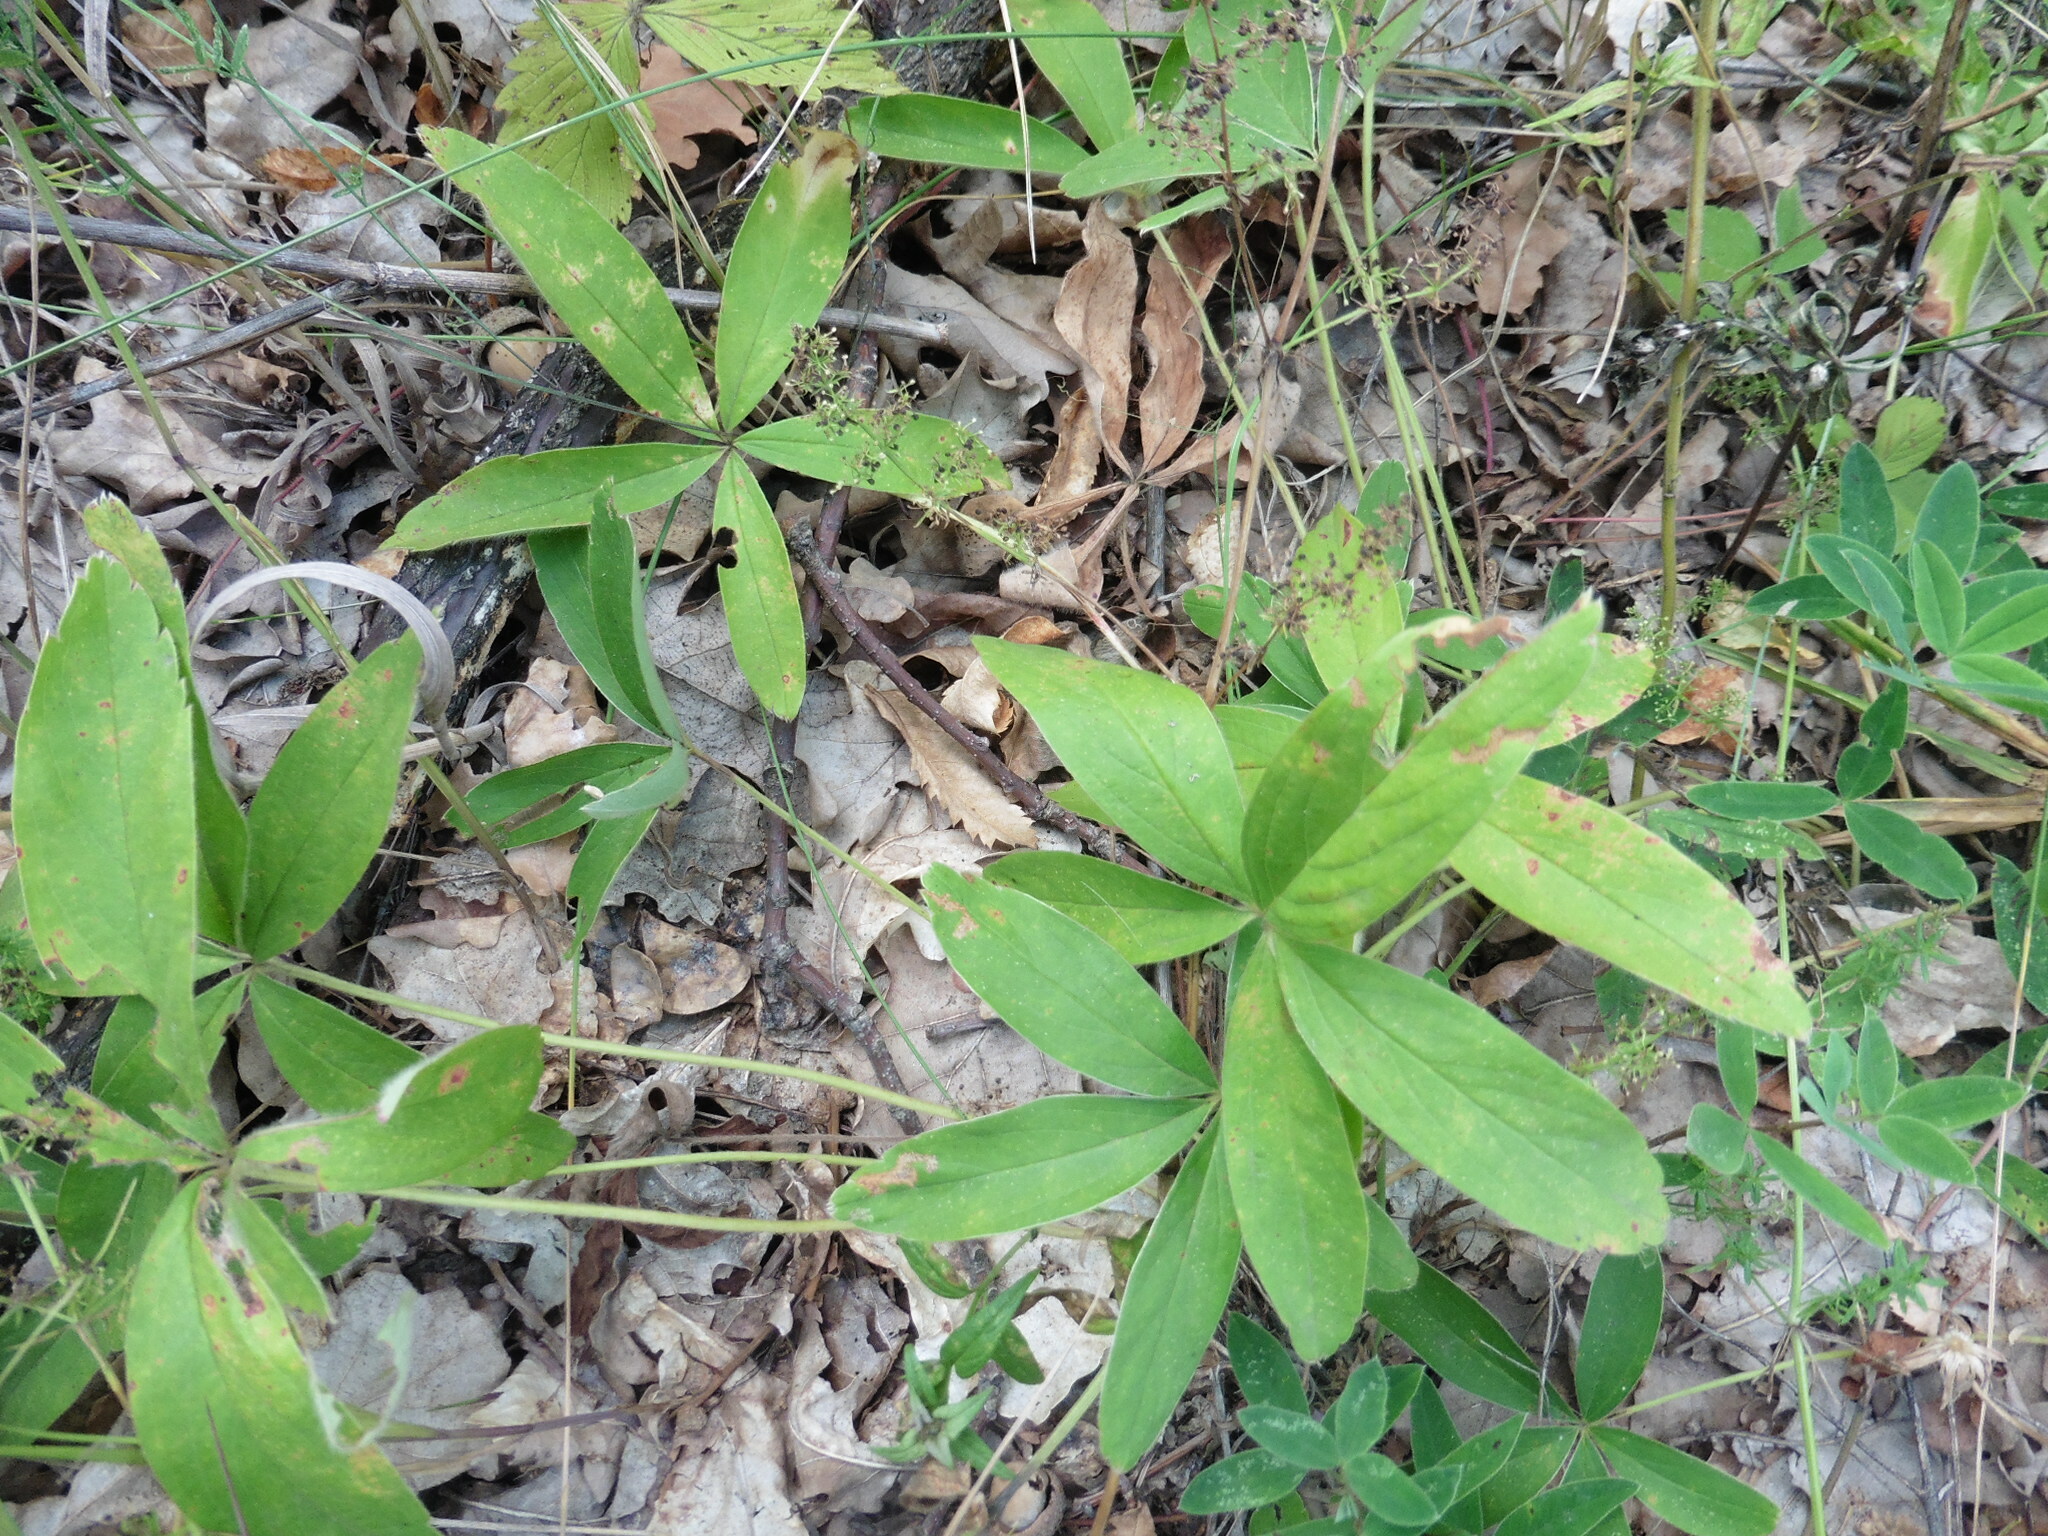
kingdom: Plantae
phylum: Tracheophyta
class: Magnoliopsida
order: Rosales
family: Rosaceae
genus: Potentilla
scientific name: Potentilla alba
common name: White cinquefoil
